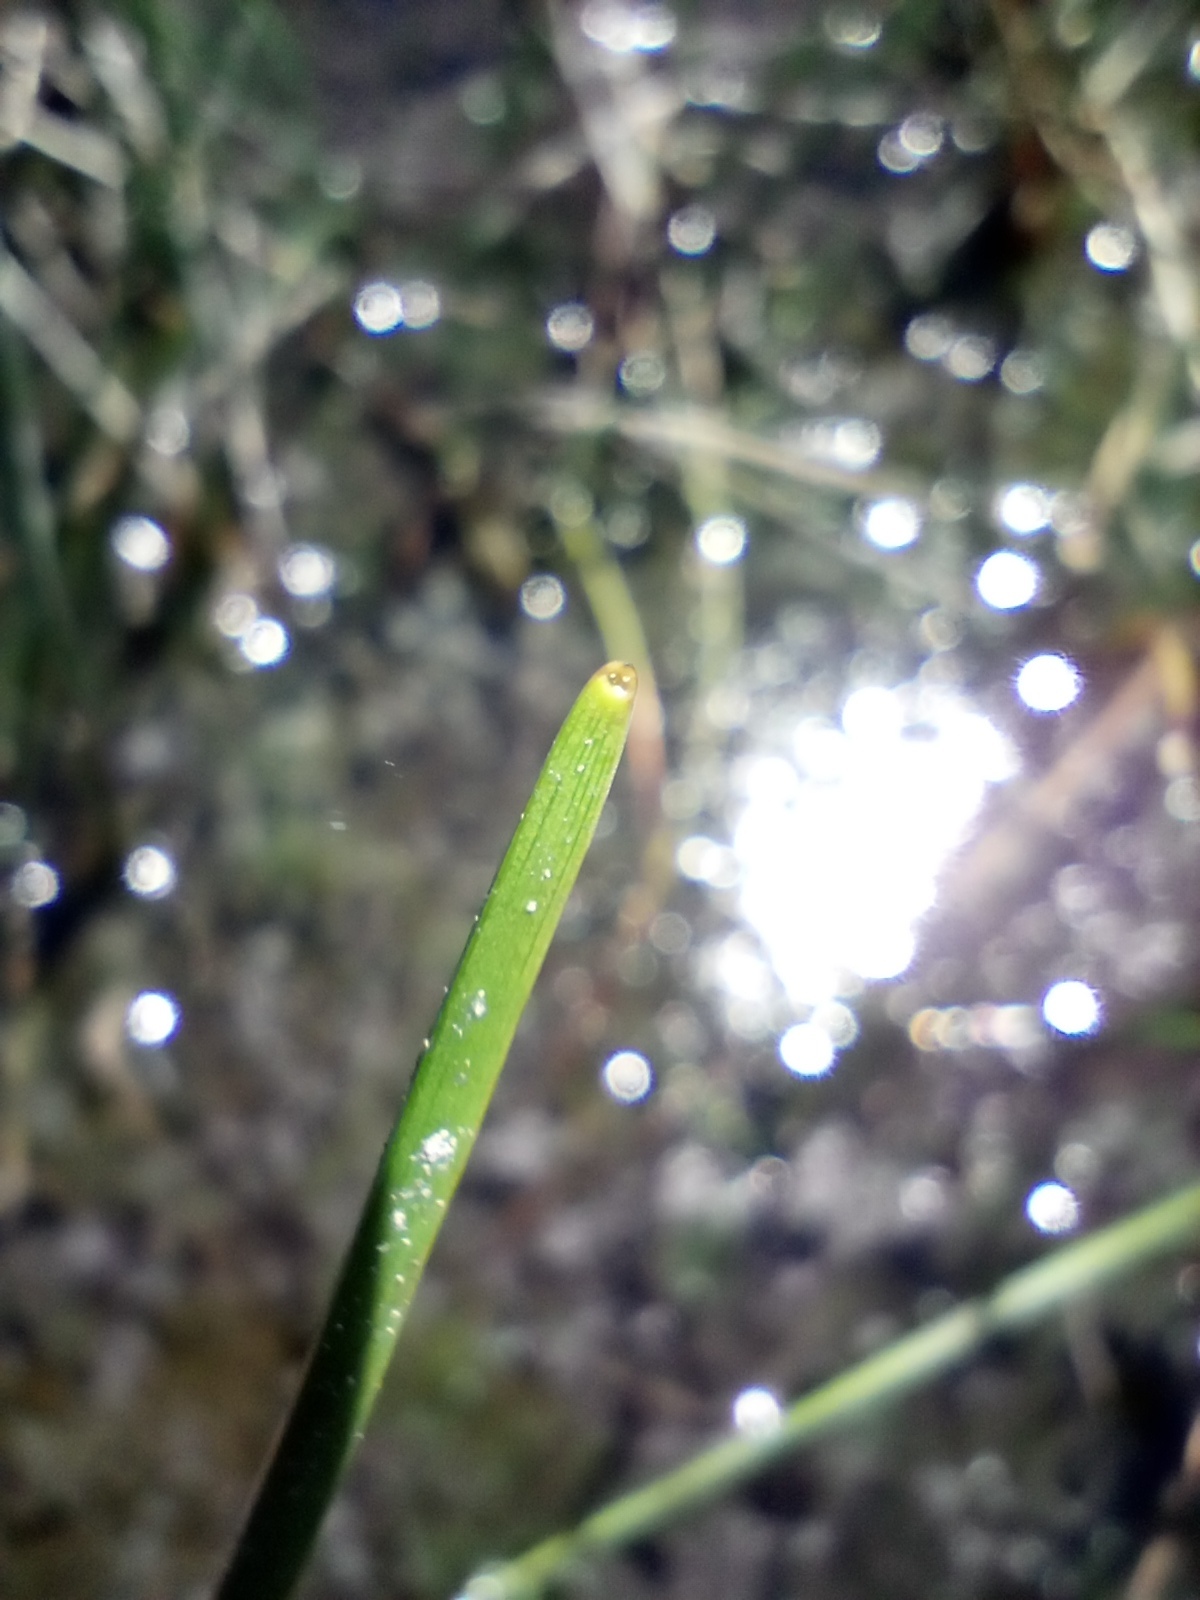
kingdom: Plantae
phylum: Tracheophyta
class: Liliopsida
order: Alismatales
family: Scheuchzeriaceae
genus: Scheuchzeria
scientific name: Scheuchzeria palustris
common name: Rannoch-rush
